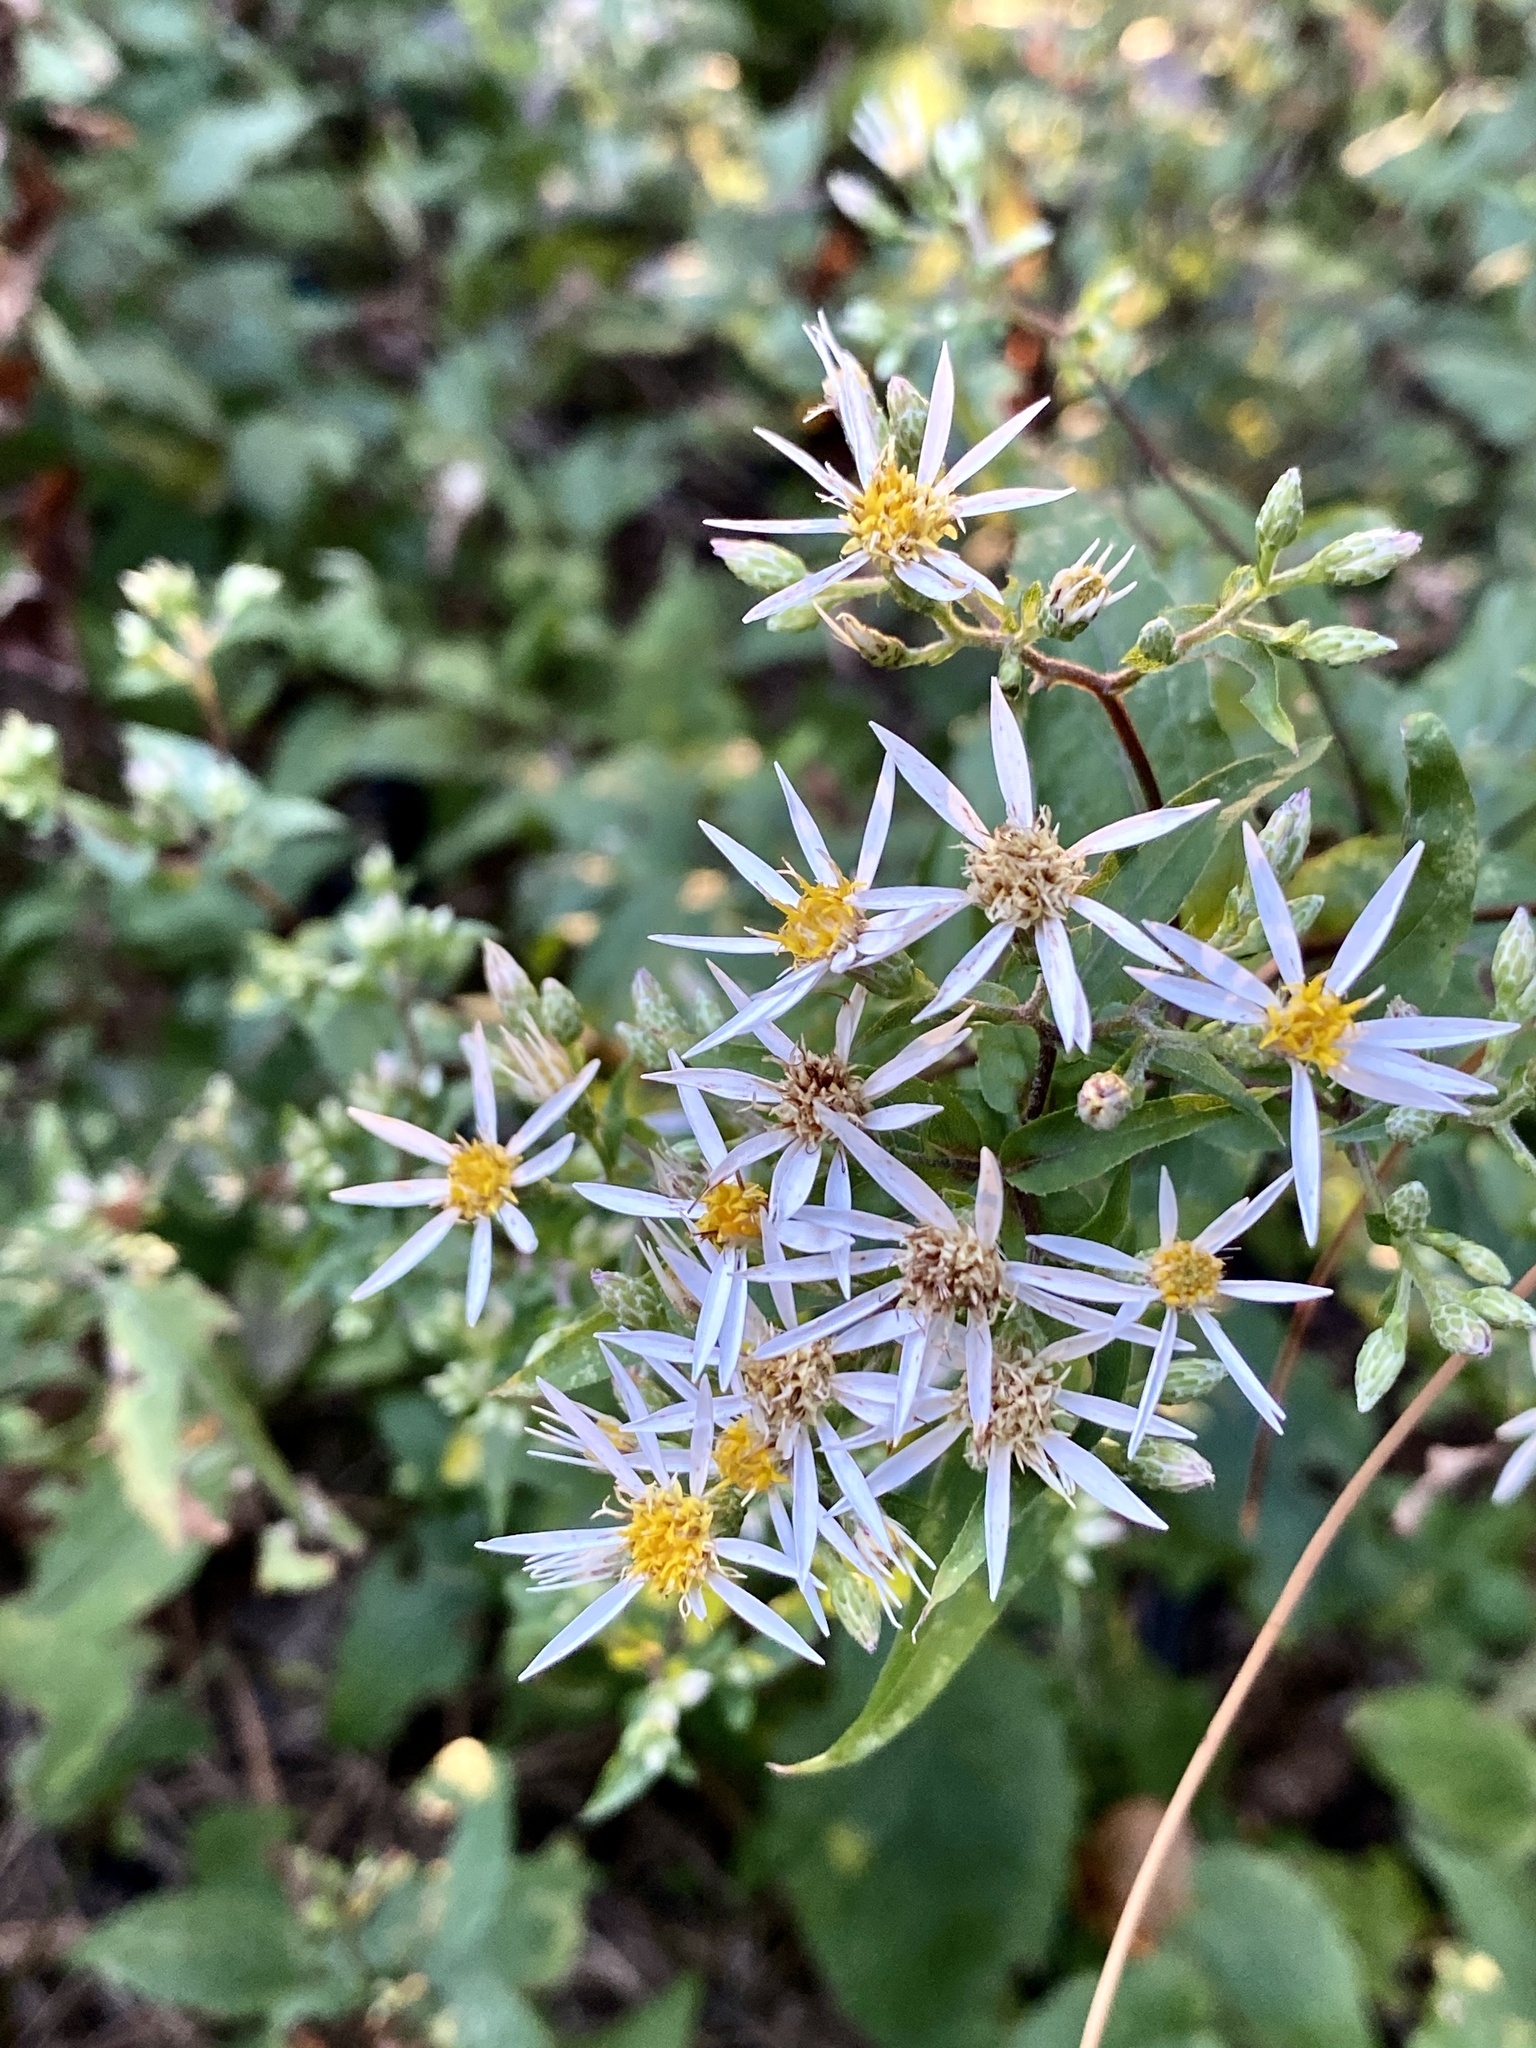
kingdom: Plantae
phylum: Tracheophyta
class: Magnoliopsida
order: Asterales
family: Asteraceae
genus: Eurybia
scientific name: Eurybia divaricata
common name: White wood aster
